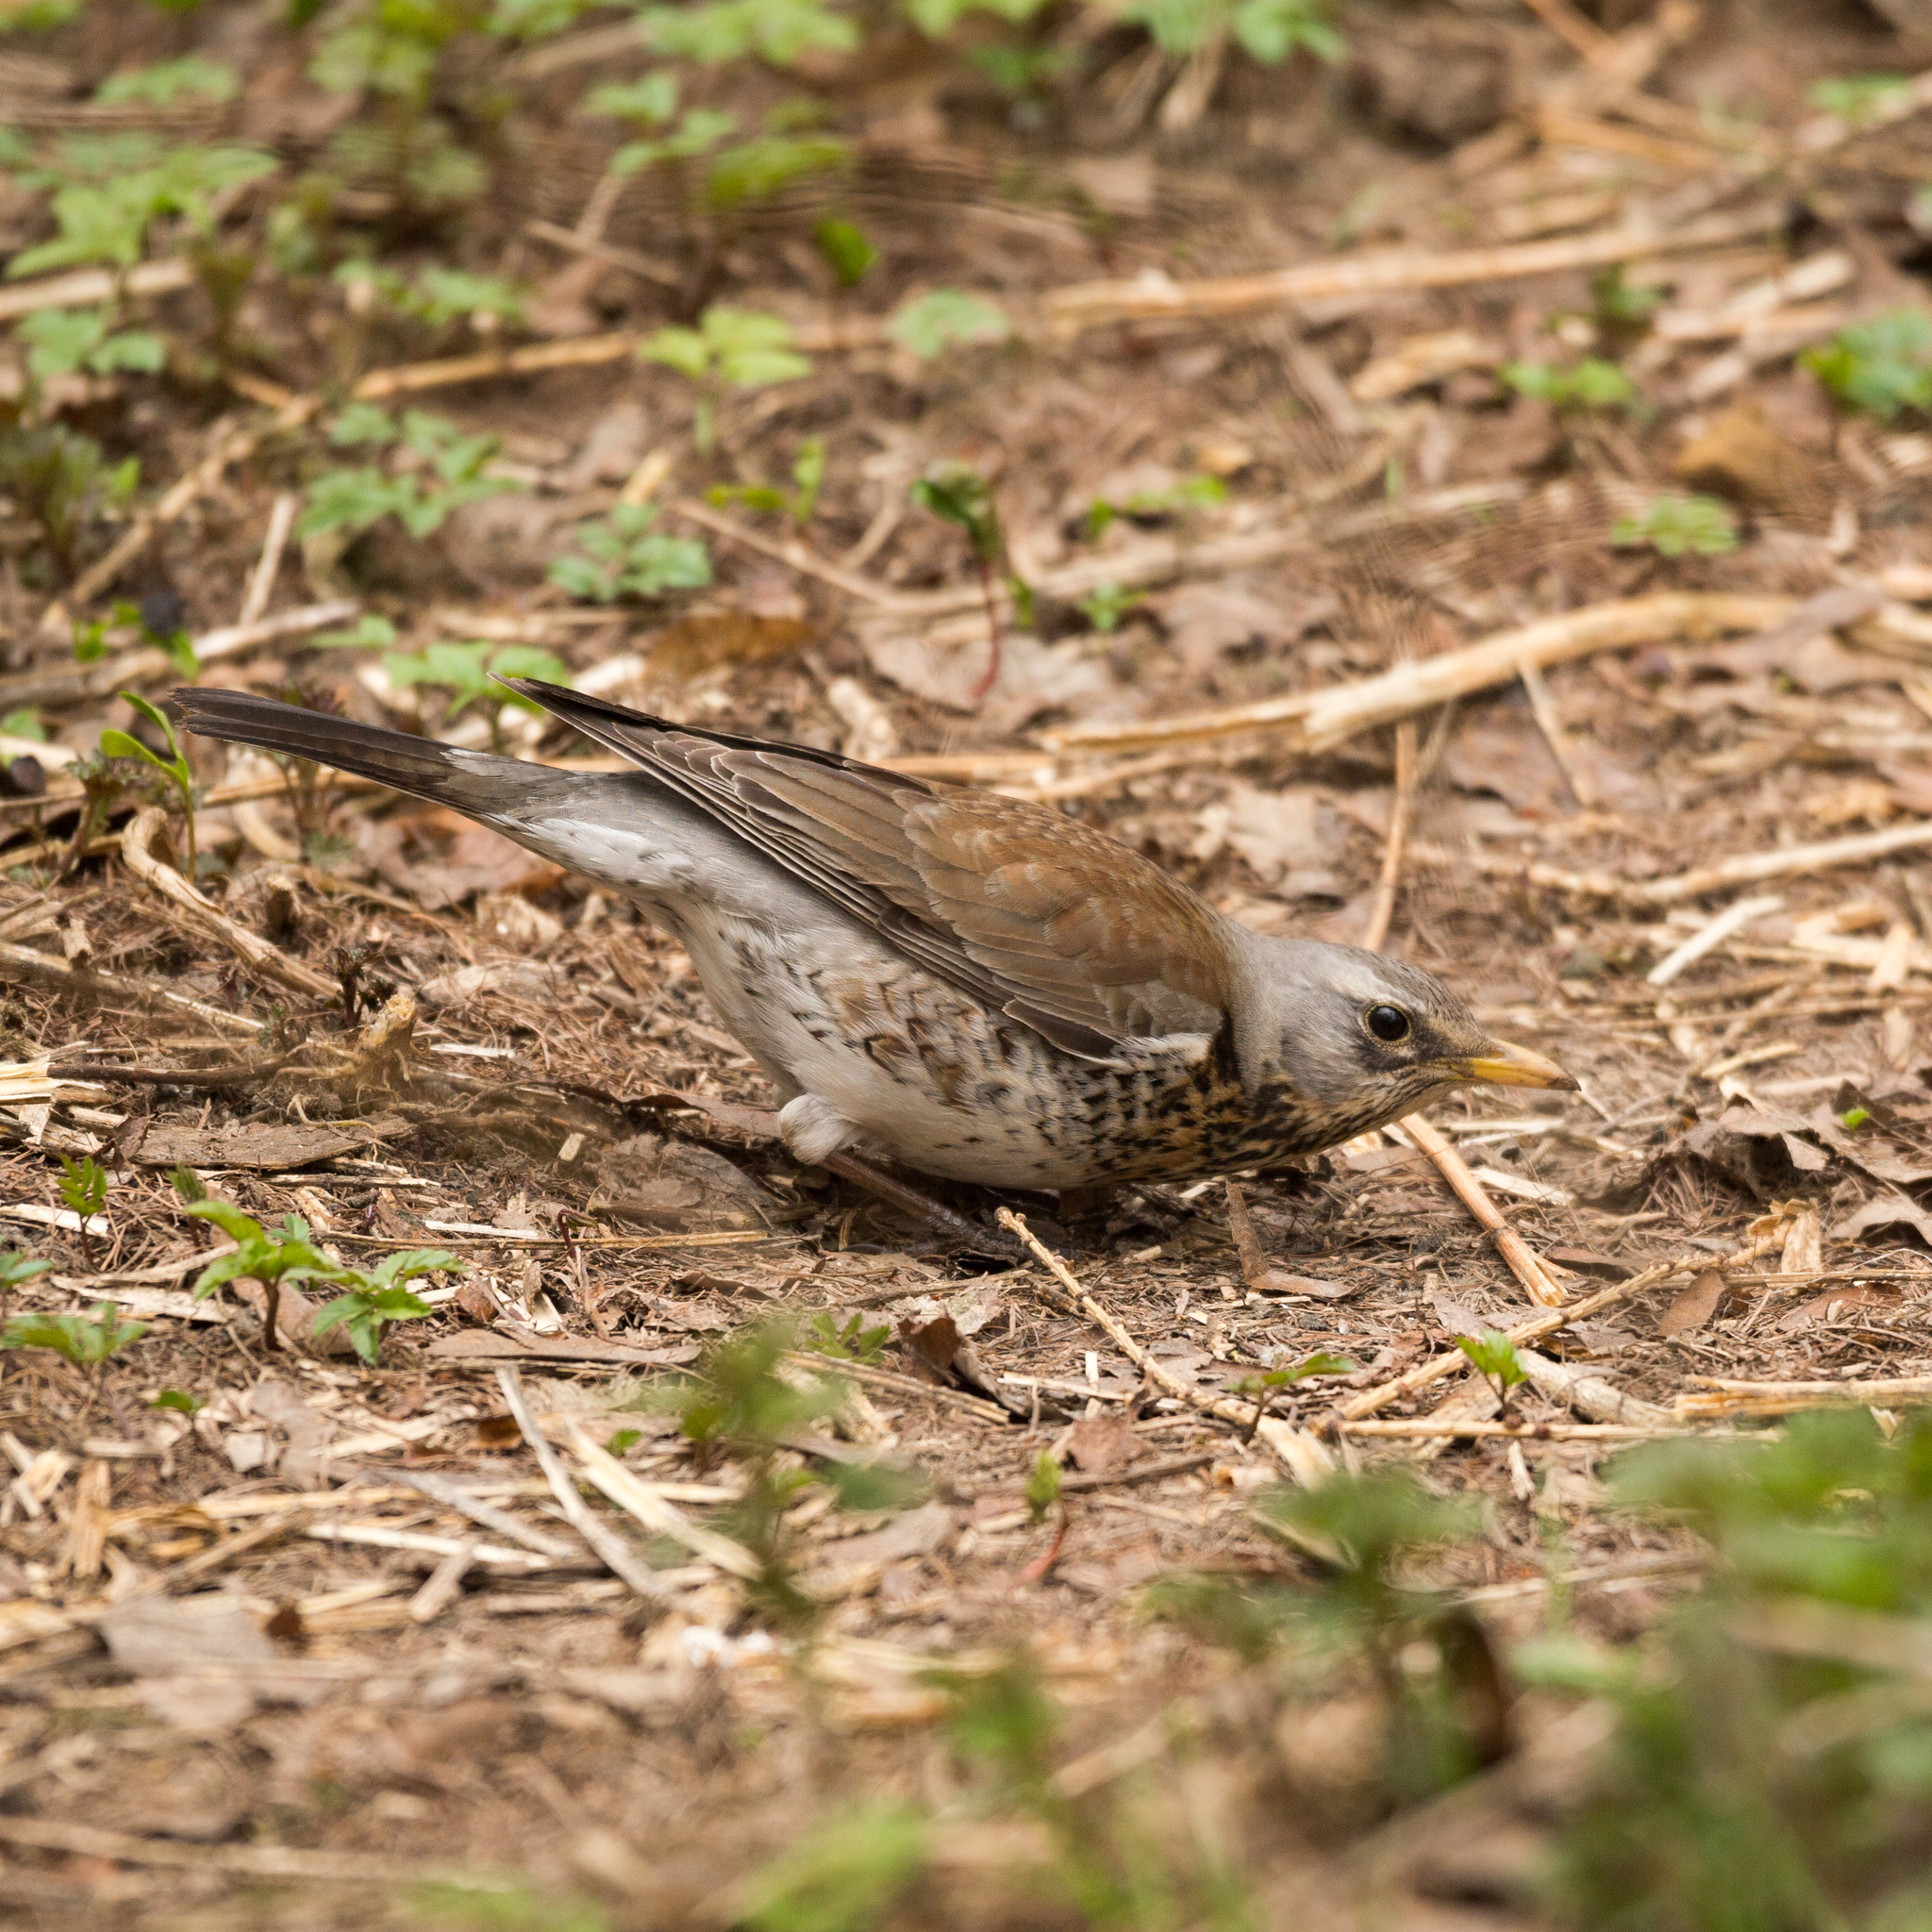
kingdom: Animalia
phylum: Chordata
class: Aves
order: Passeriformes
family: Turdidae
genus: Turdus
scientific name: Turdus pilaris
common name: Fieldfare
